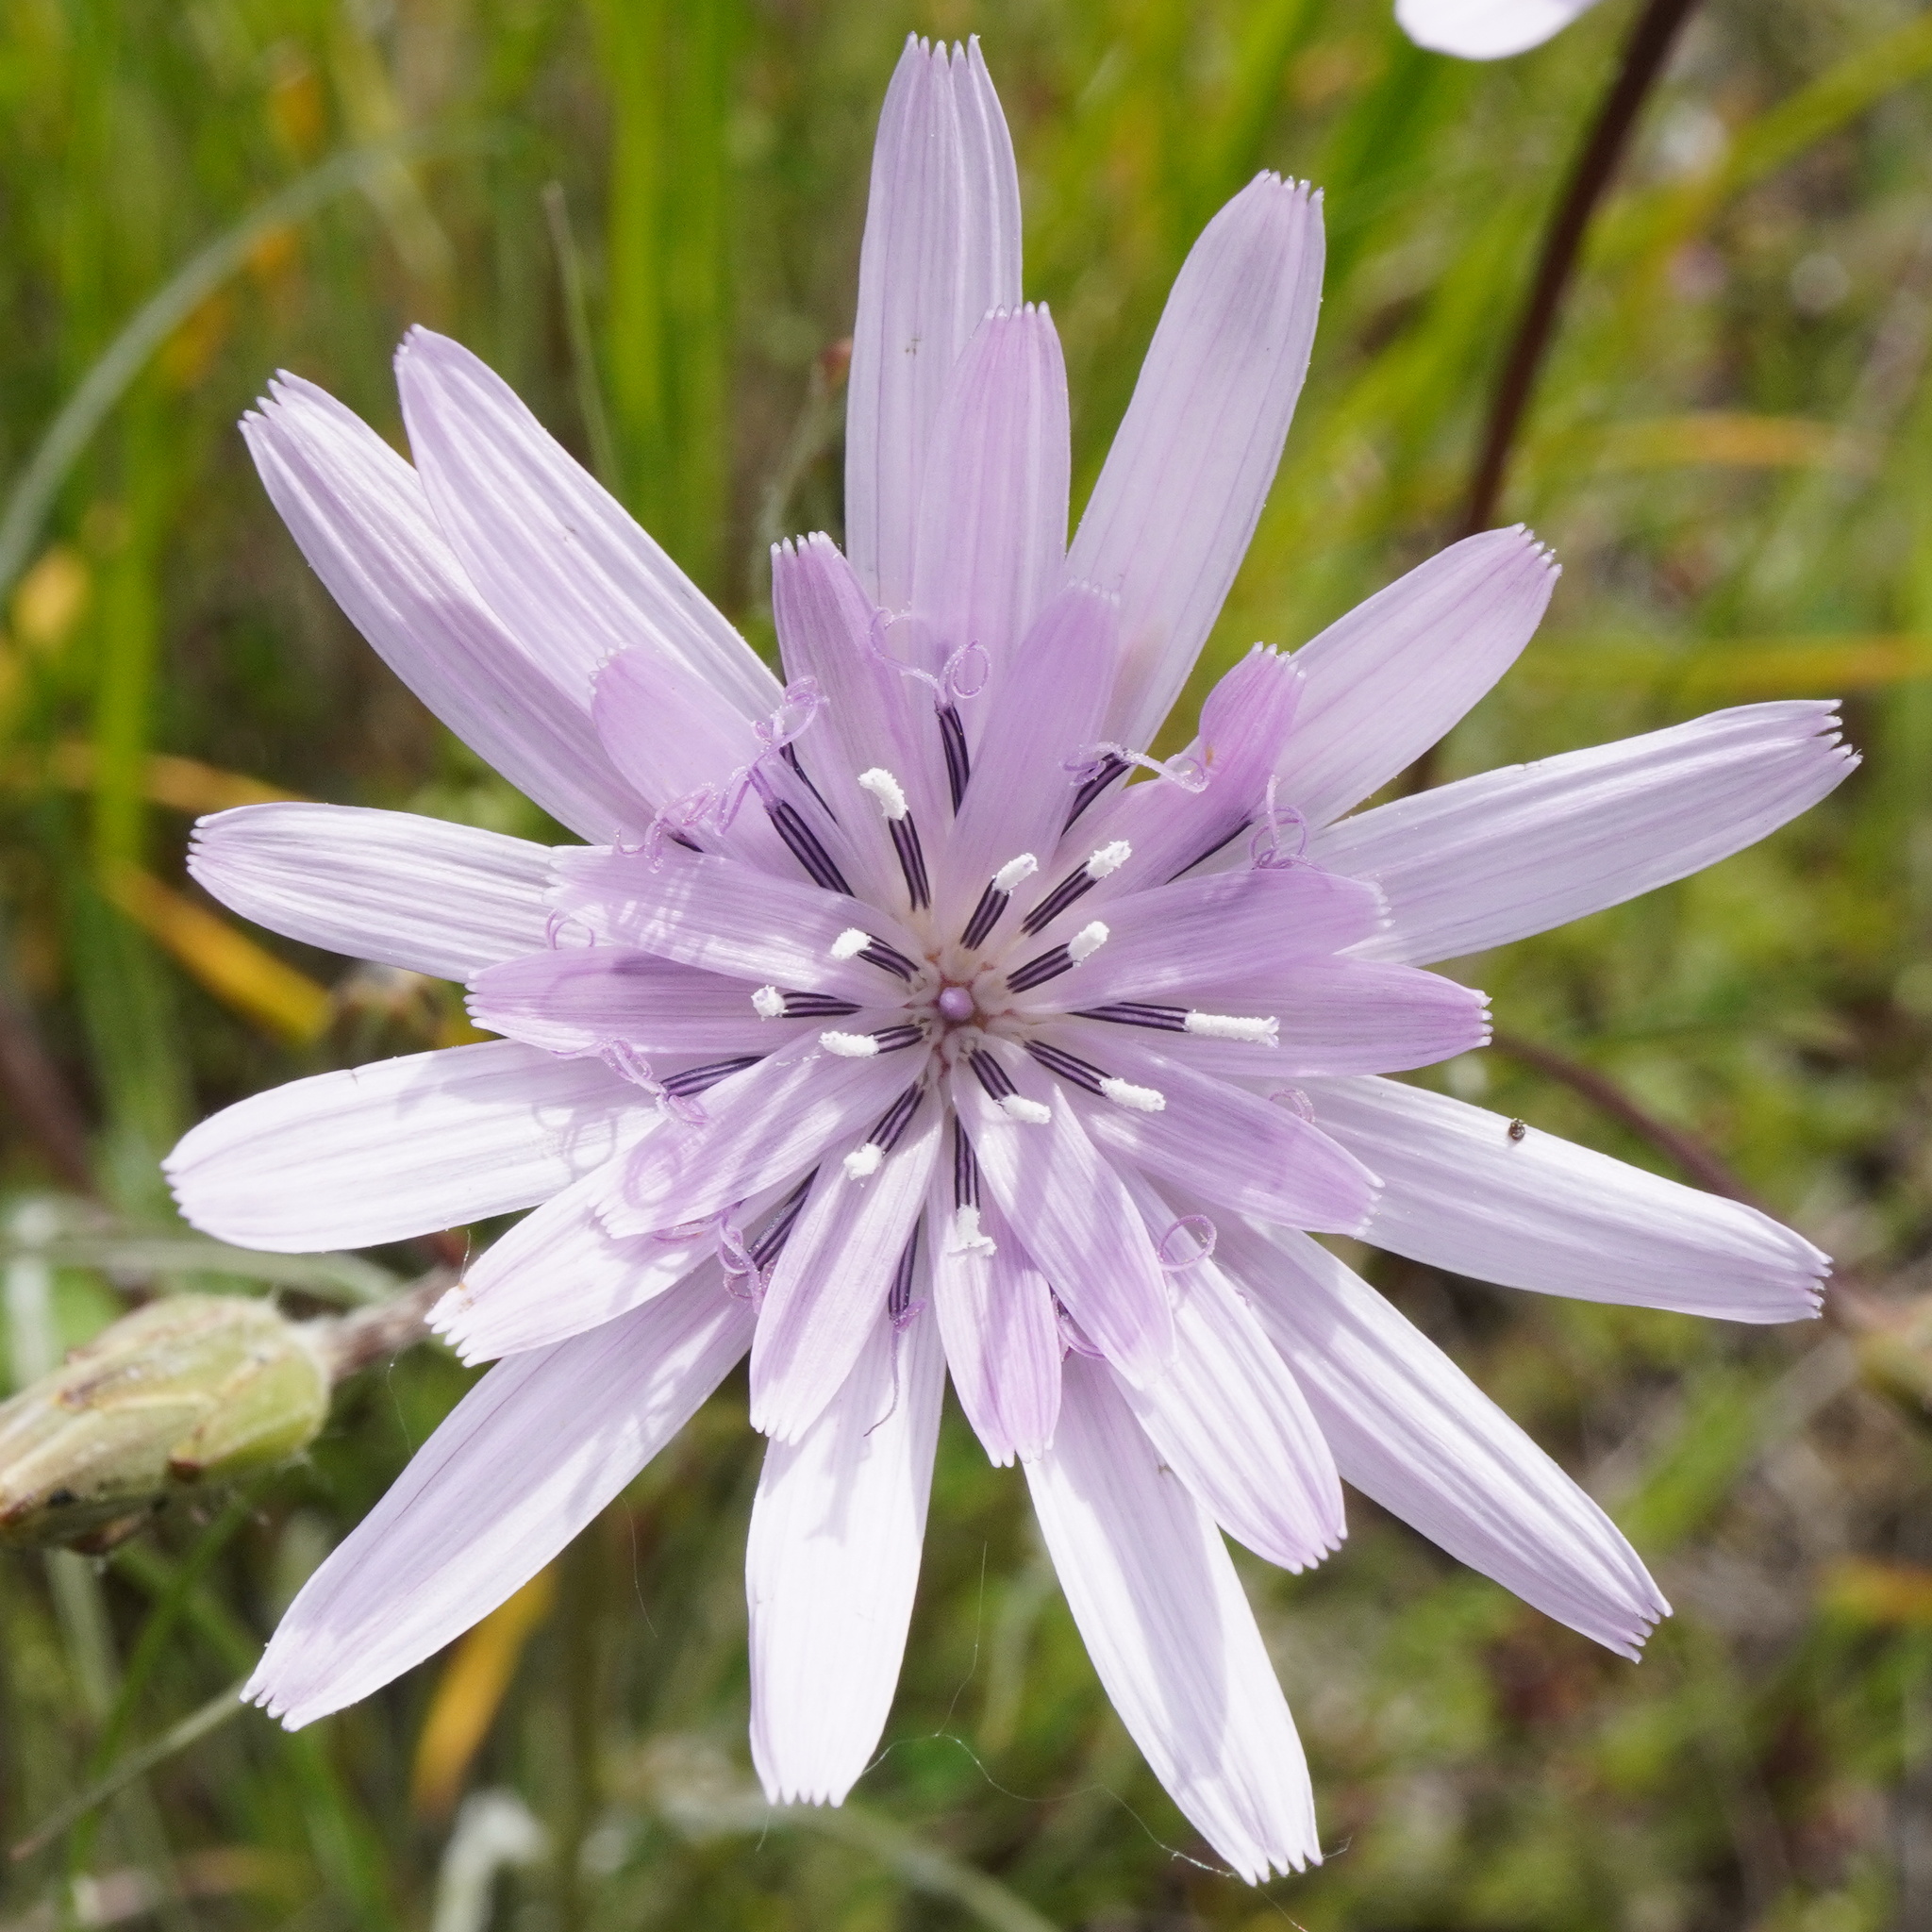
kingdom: Plantae
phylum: Tracheophyta
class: Magnoliopsida
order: Asterales
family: Asteraceae
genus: Scorzonera
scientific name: Scorzonera purpurea
